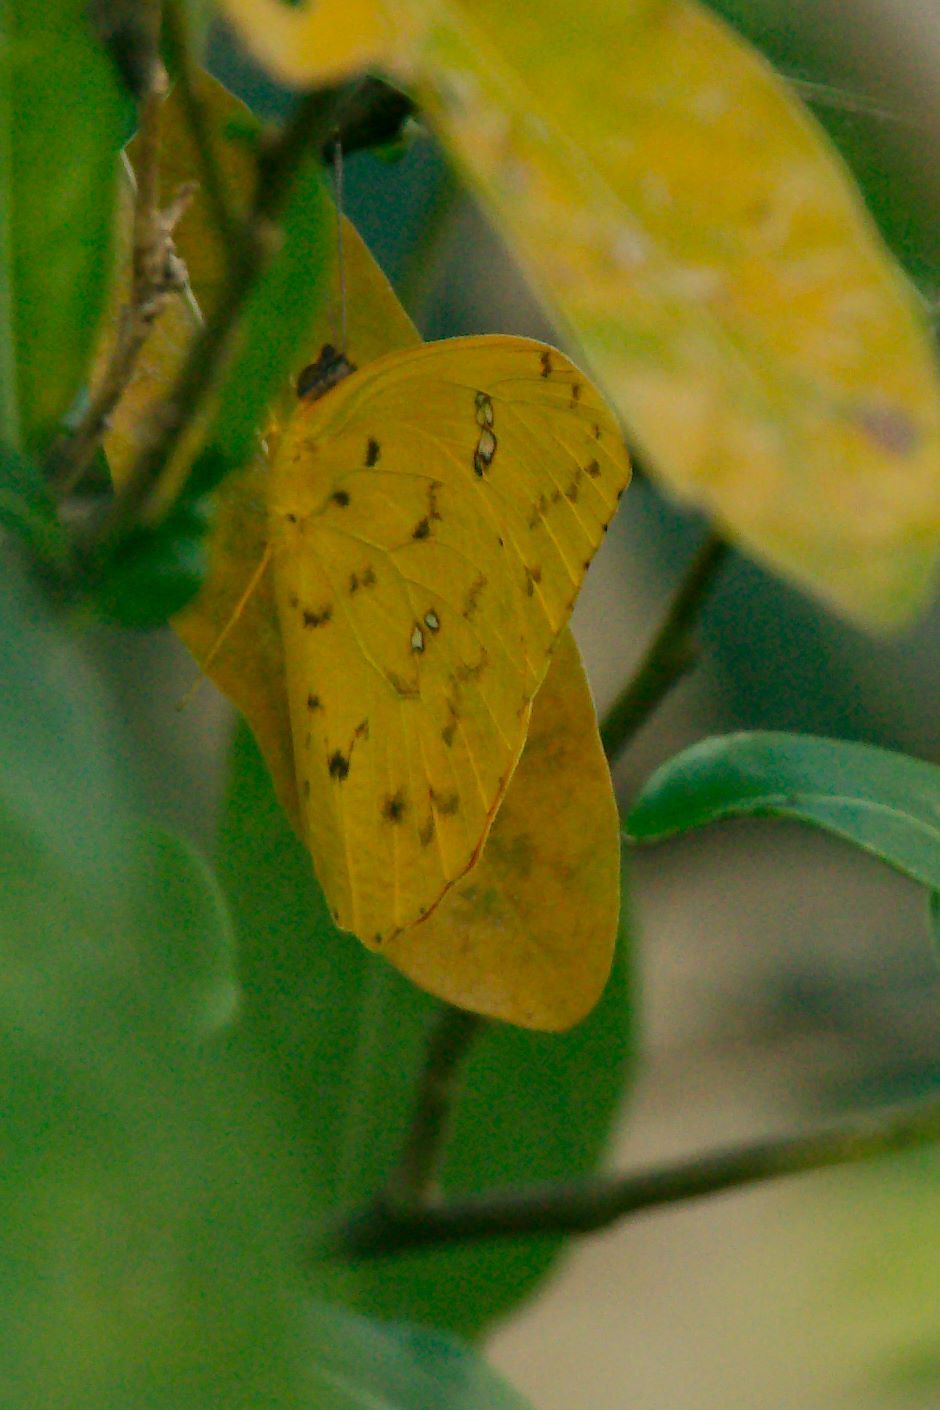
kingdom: Animalia
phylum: Arthropoda
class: Insecta
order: Lepidoptera
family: Pieridae
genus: Phoebis
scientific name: Phoebis philea
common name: Orange-barred giant sulphur
